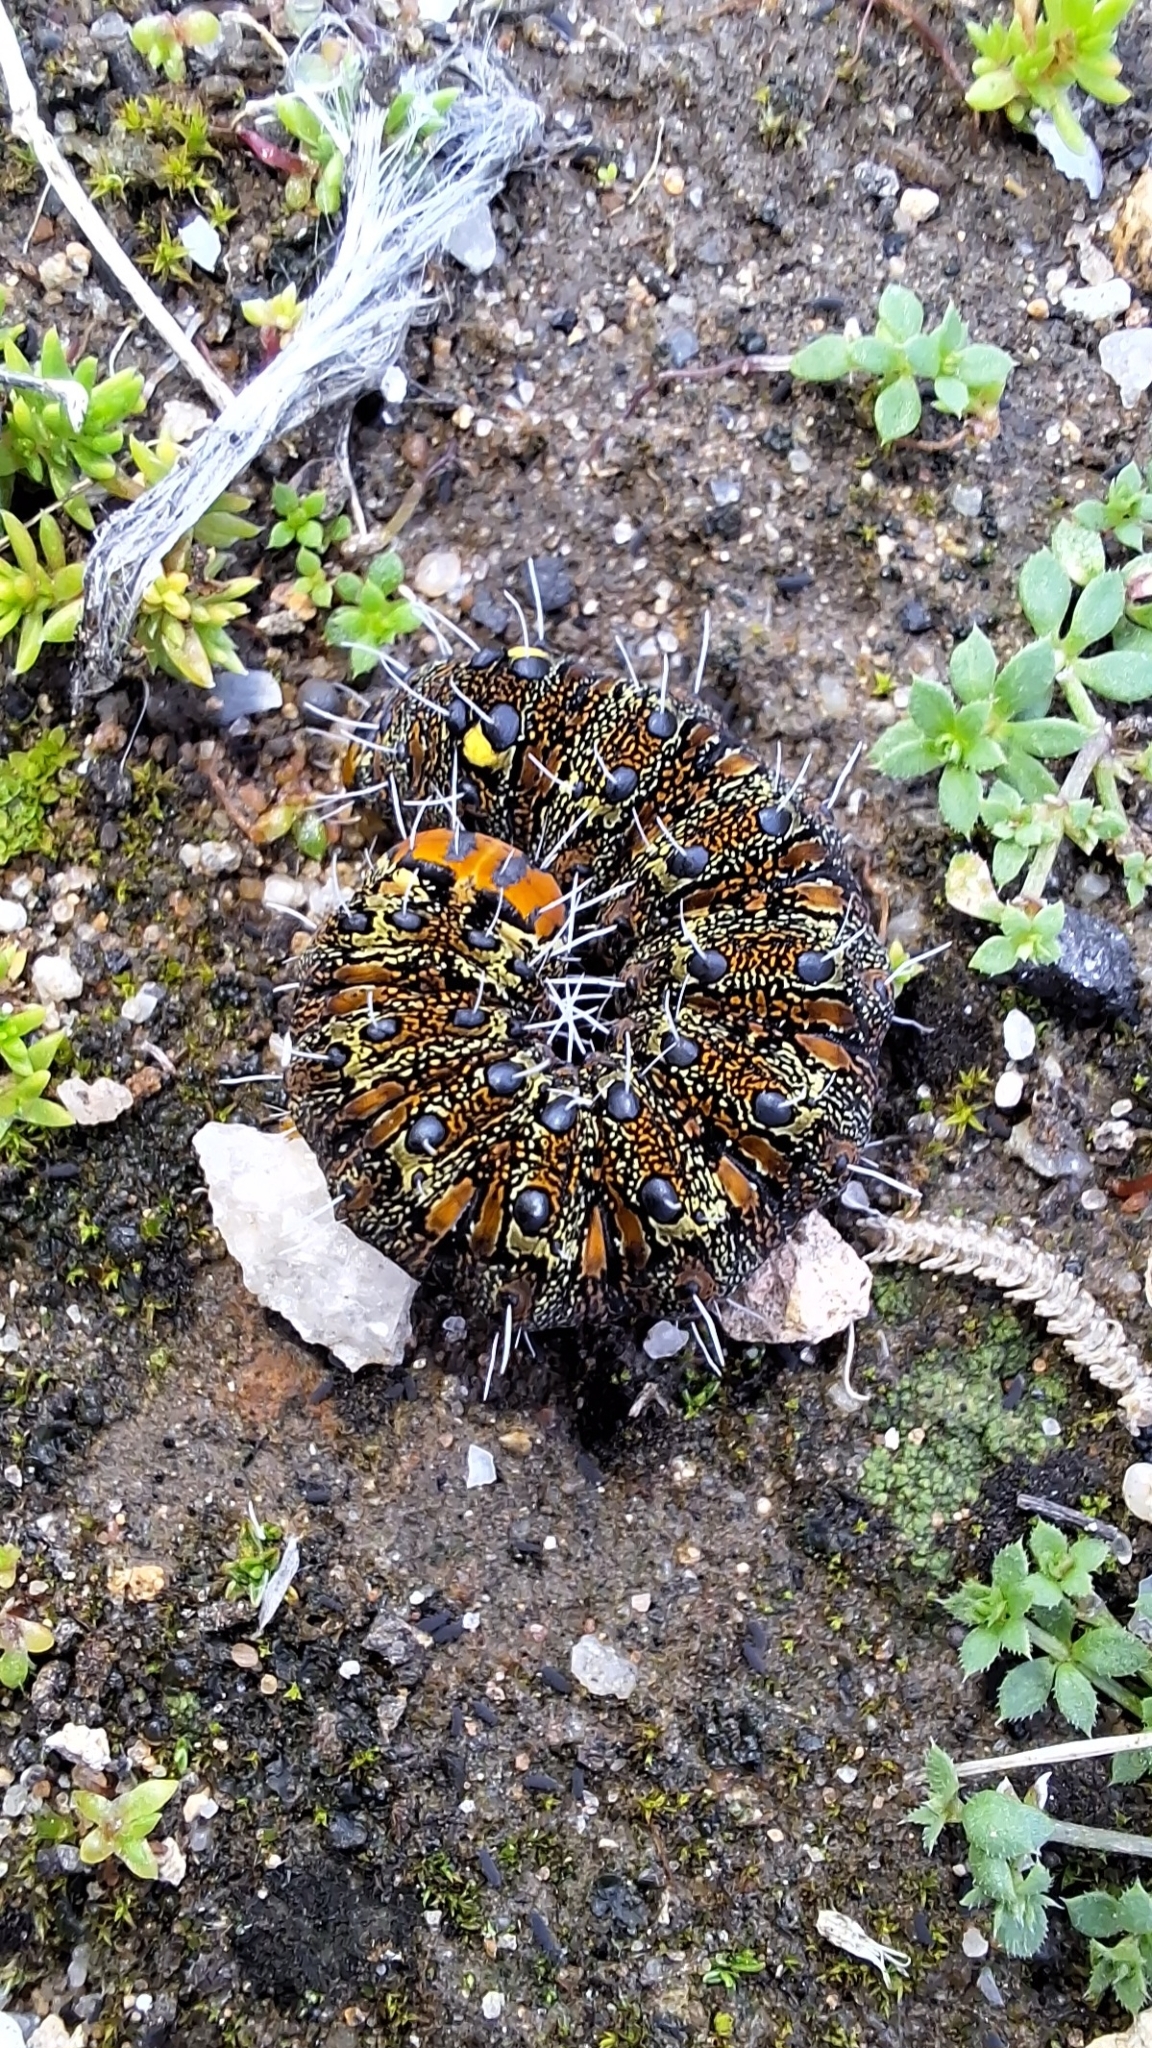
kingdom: Animalia
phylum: Arthropoda
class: Insecta
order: Lepidoptera
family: Noctuidae
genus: Apina
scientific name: Apina callisto
